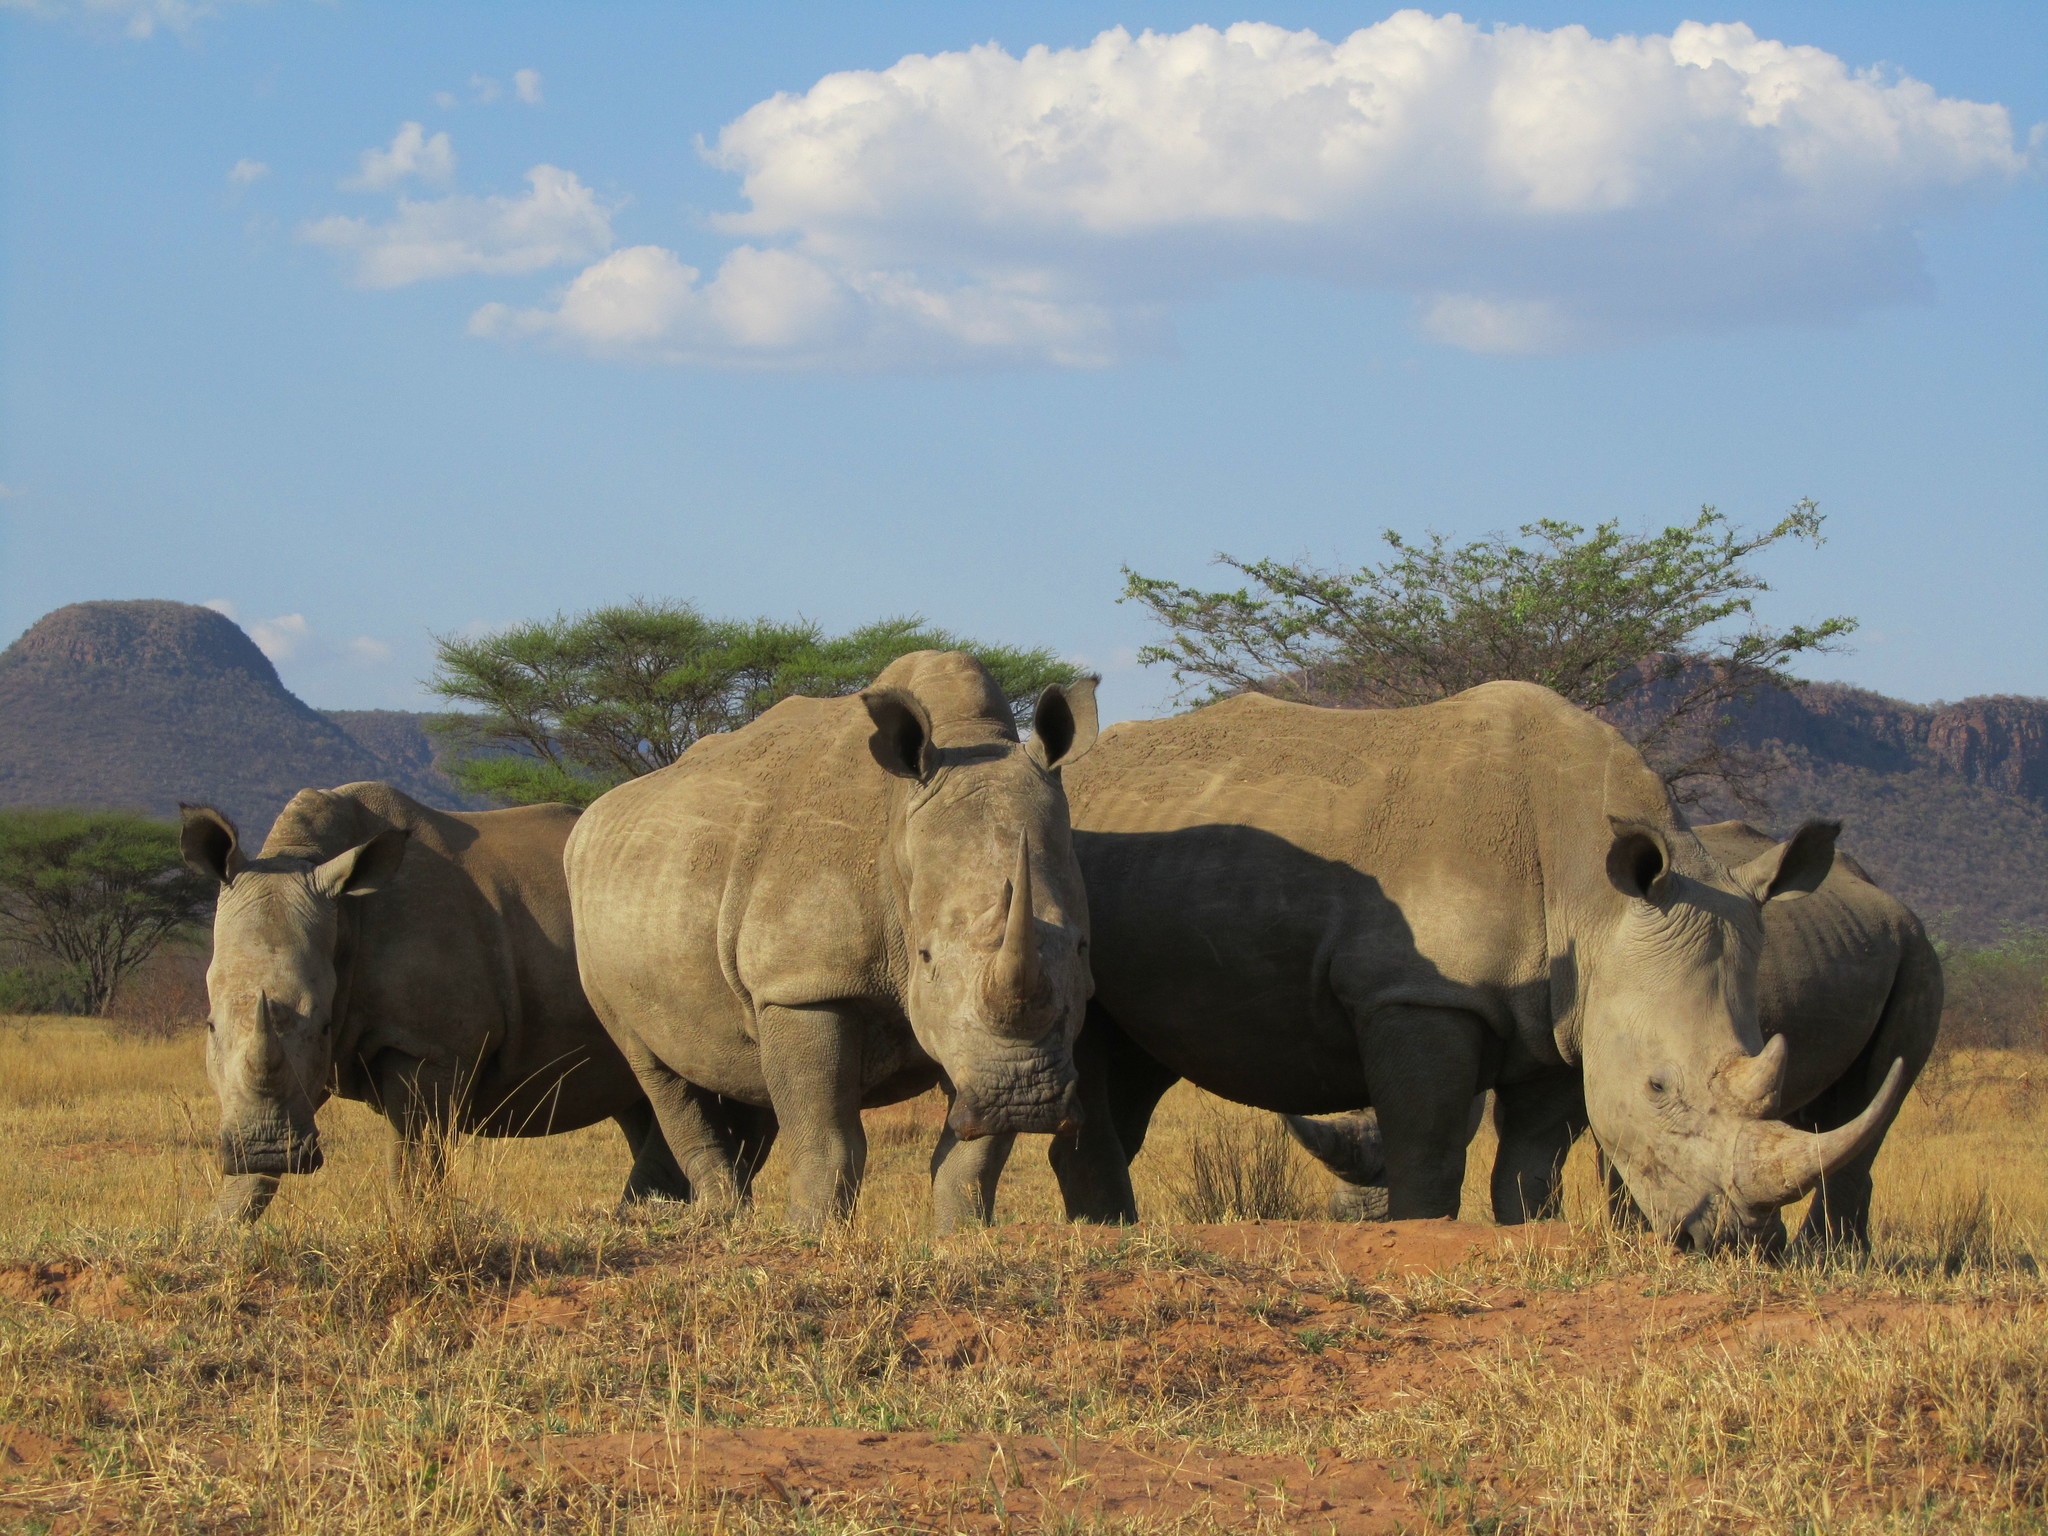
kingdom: Animalia
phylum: Chordata
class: Mammalia
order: Perissodactyla
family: Rhinocerotidae
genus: Ceratotherium
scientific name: Ceratotherium simum
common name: White rhinoceros
